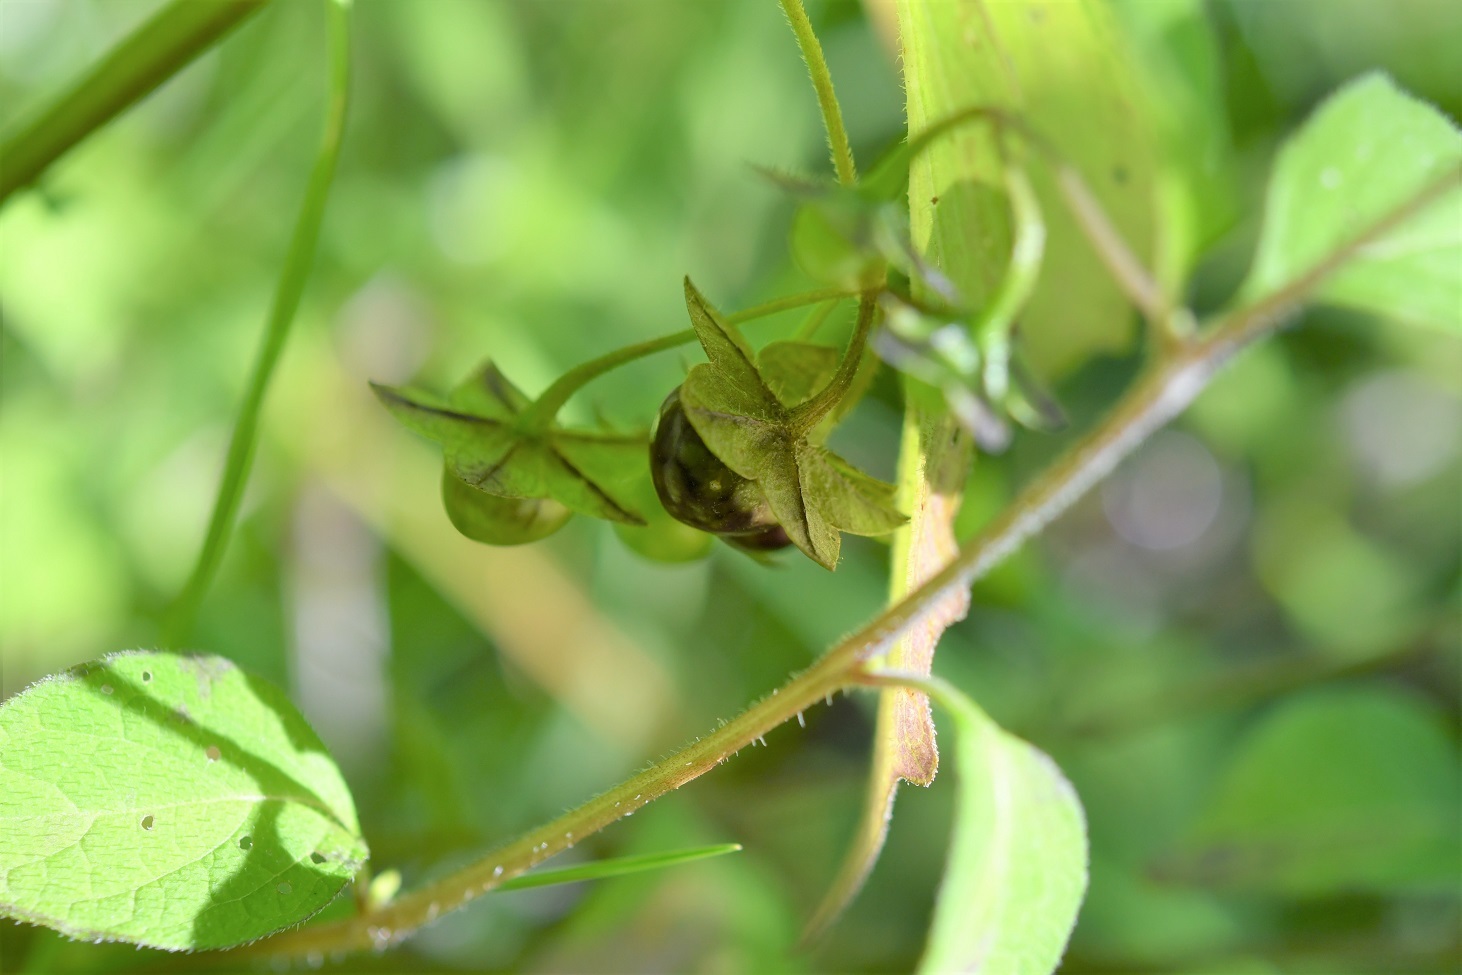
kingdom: Plantae
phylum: Tracheophyta
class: Magnoliopsida
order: Solanales
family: Solanaceae
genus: Jaltomata
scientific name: Jaltomata procumbens
